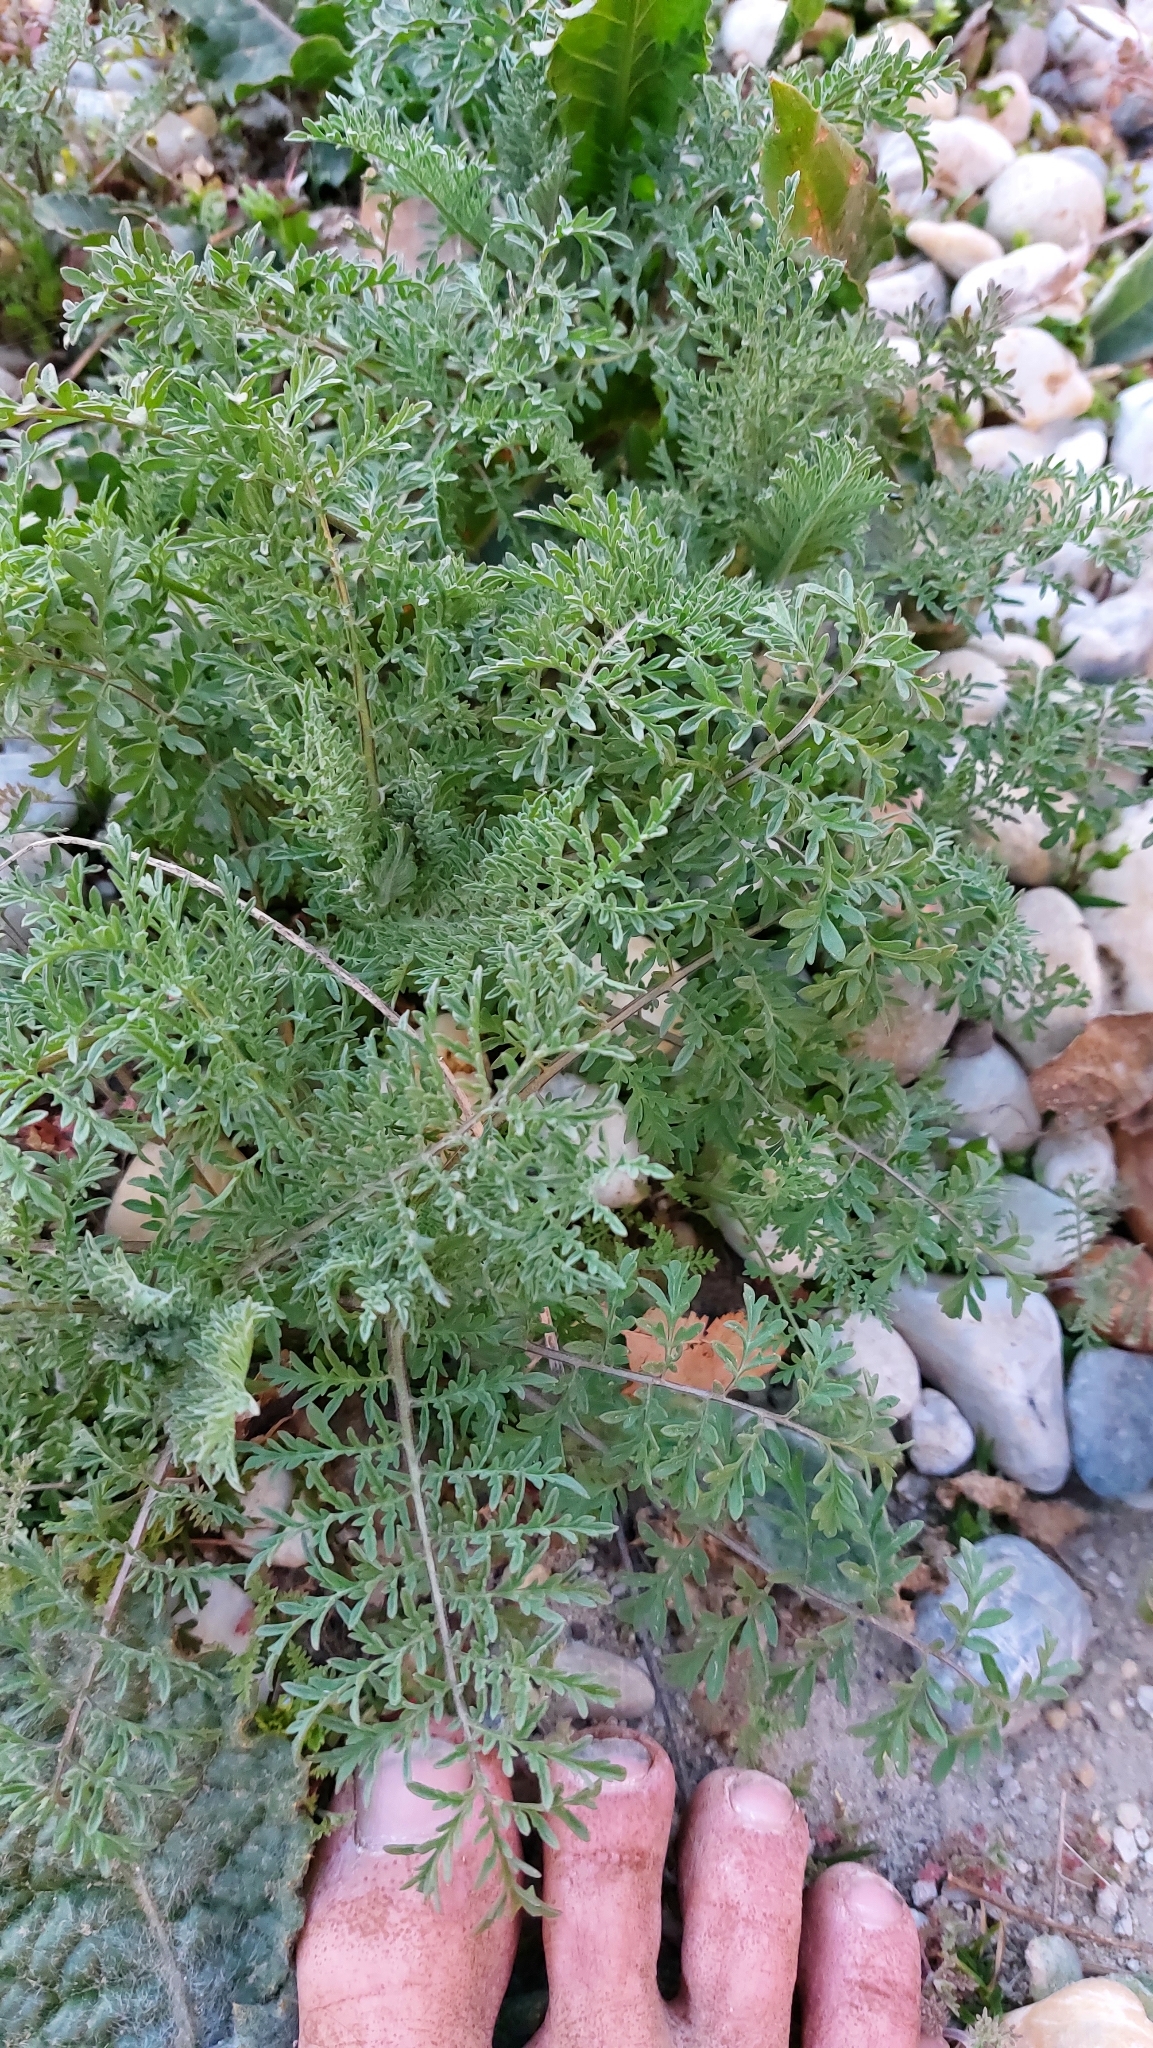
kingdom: Plantae
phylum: Tracheophyta
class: Magnoliopsida
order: Brassicales
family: Brassicaceae
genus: Descurainia
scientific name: Descurainia sophia
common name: Flixweed
